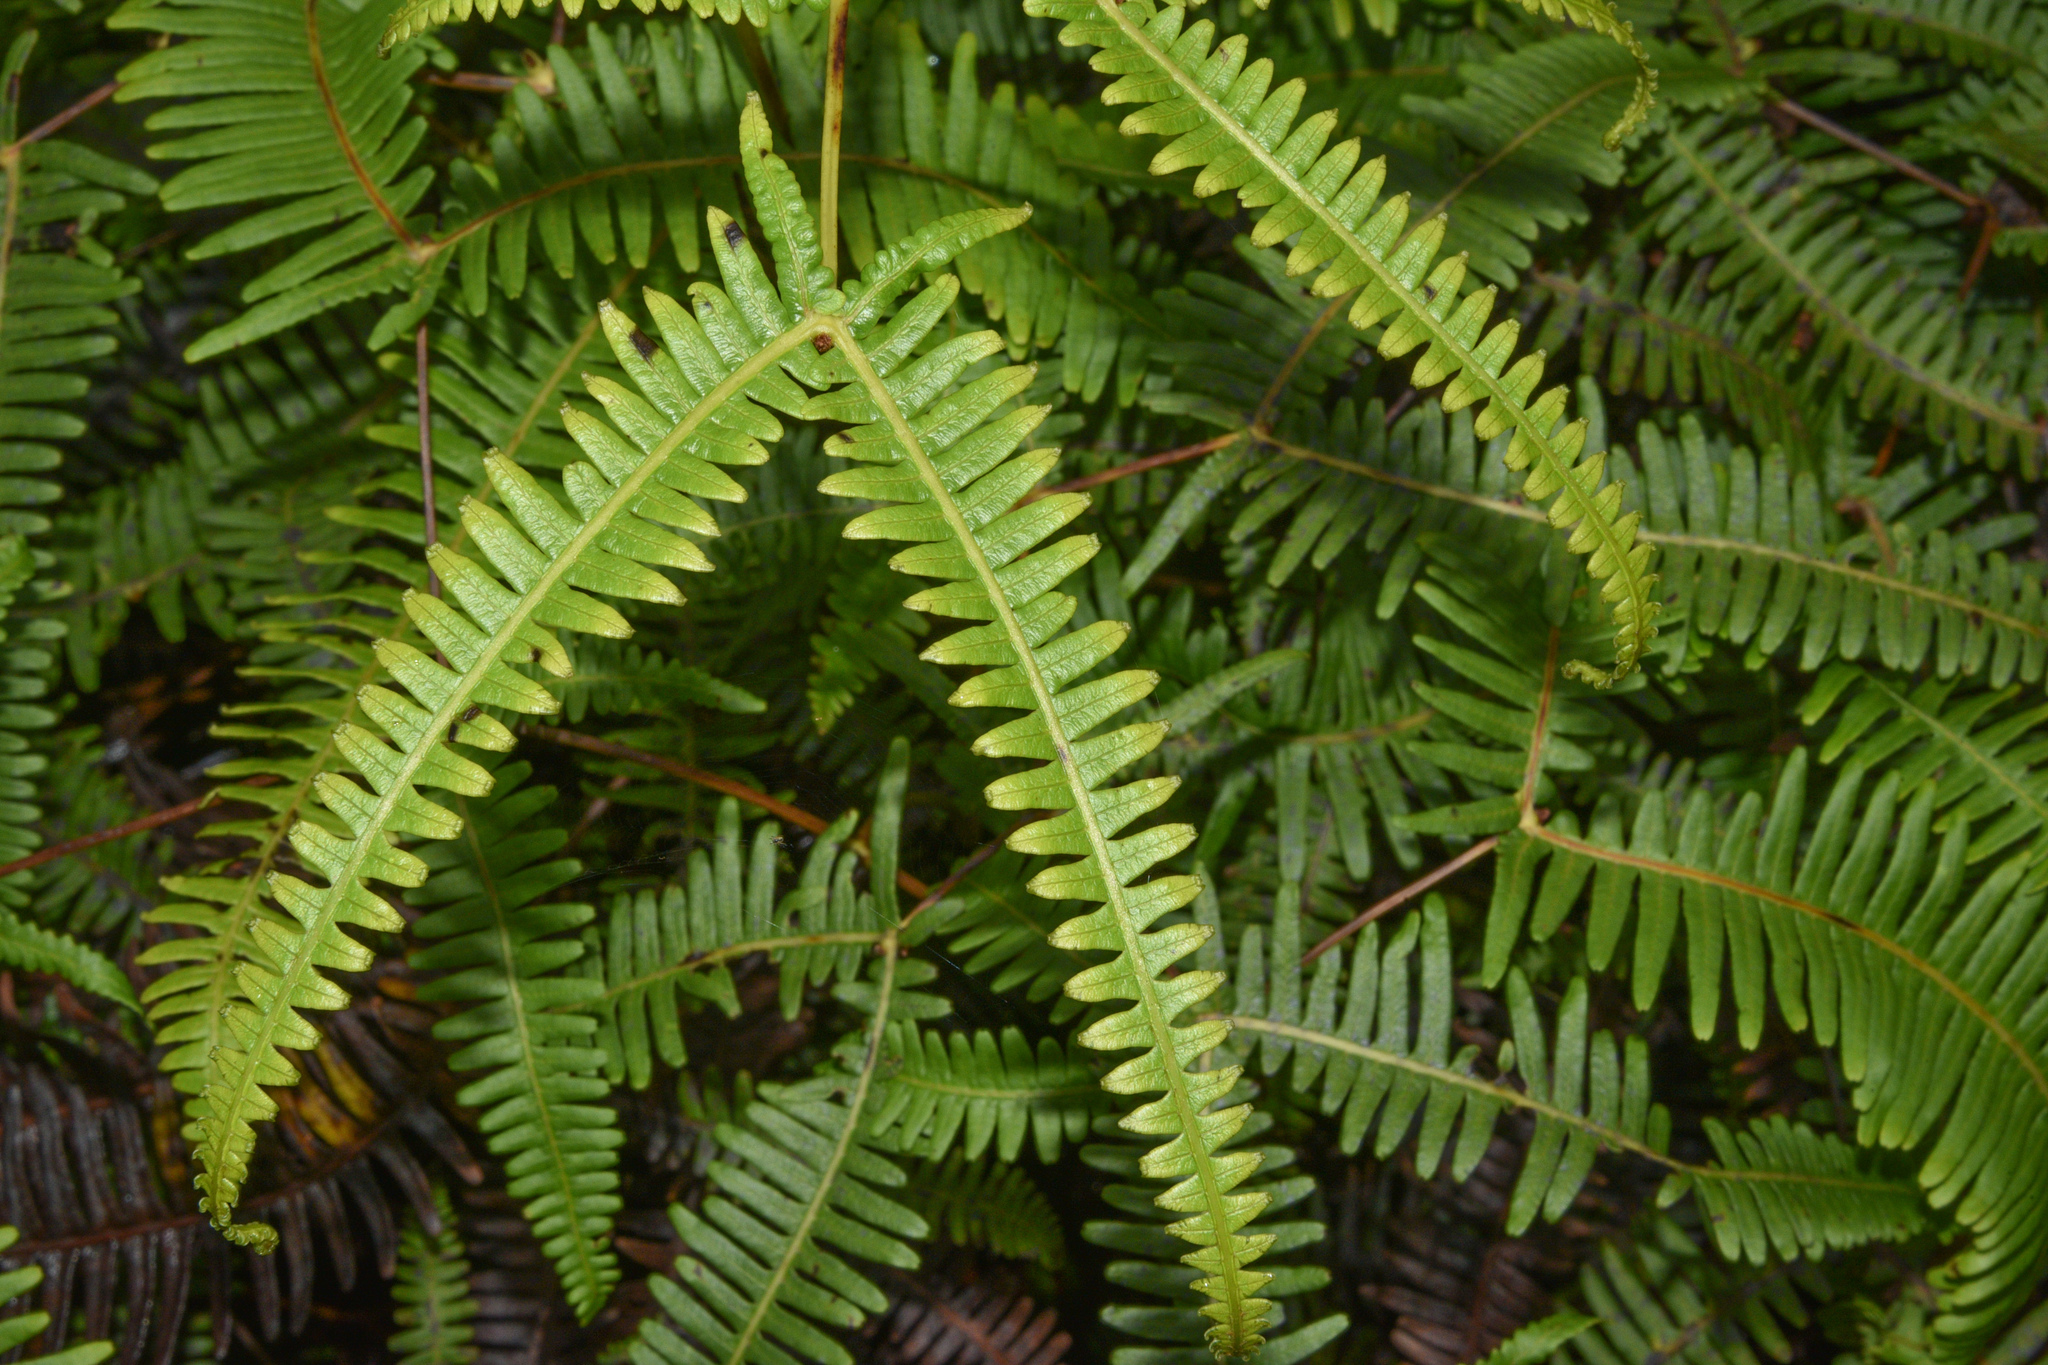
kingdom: Plantae
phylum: Tracheophyta
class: Polypodiopsida
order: Gleicheniales
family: Gleicheniaceae
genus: Dicranopteris
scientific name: Dicranopteris linearis
